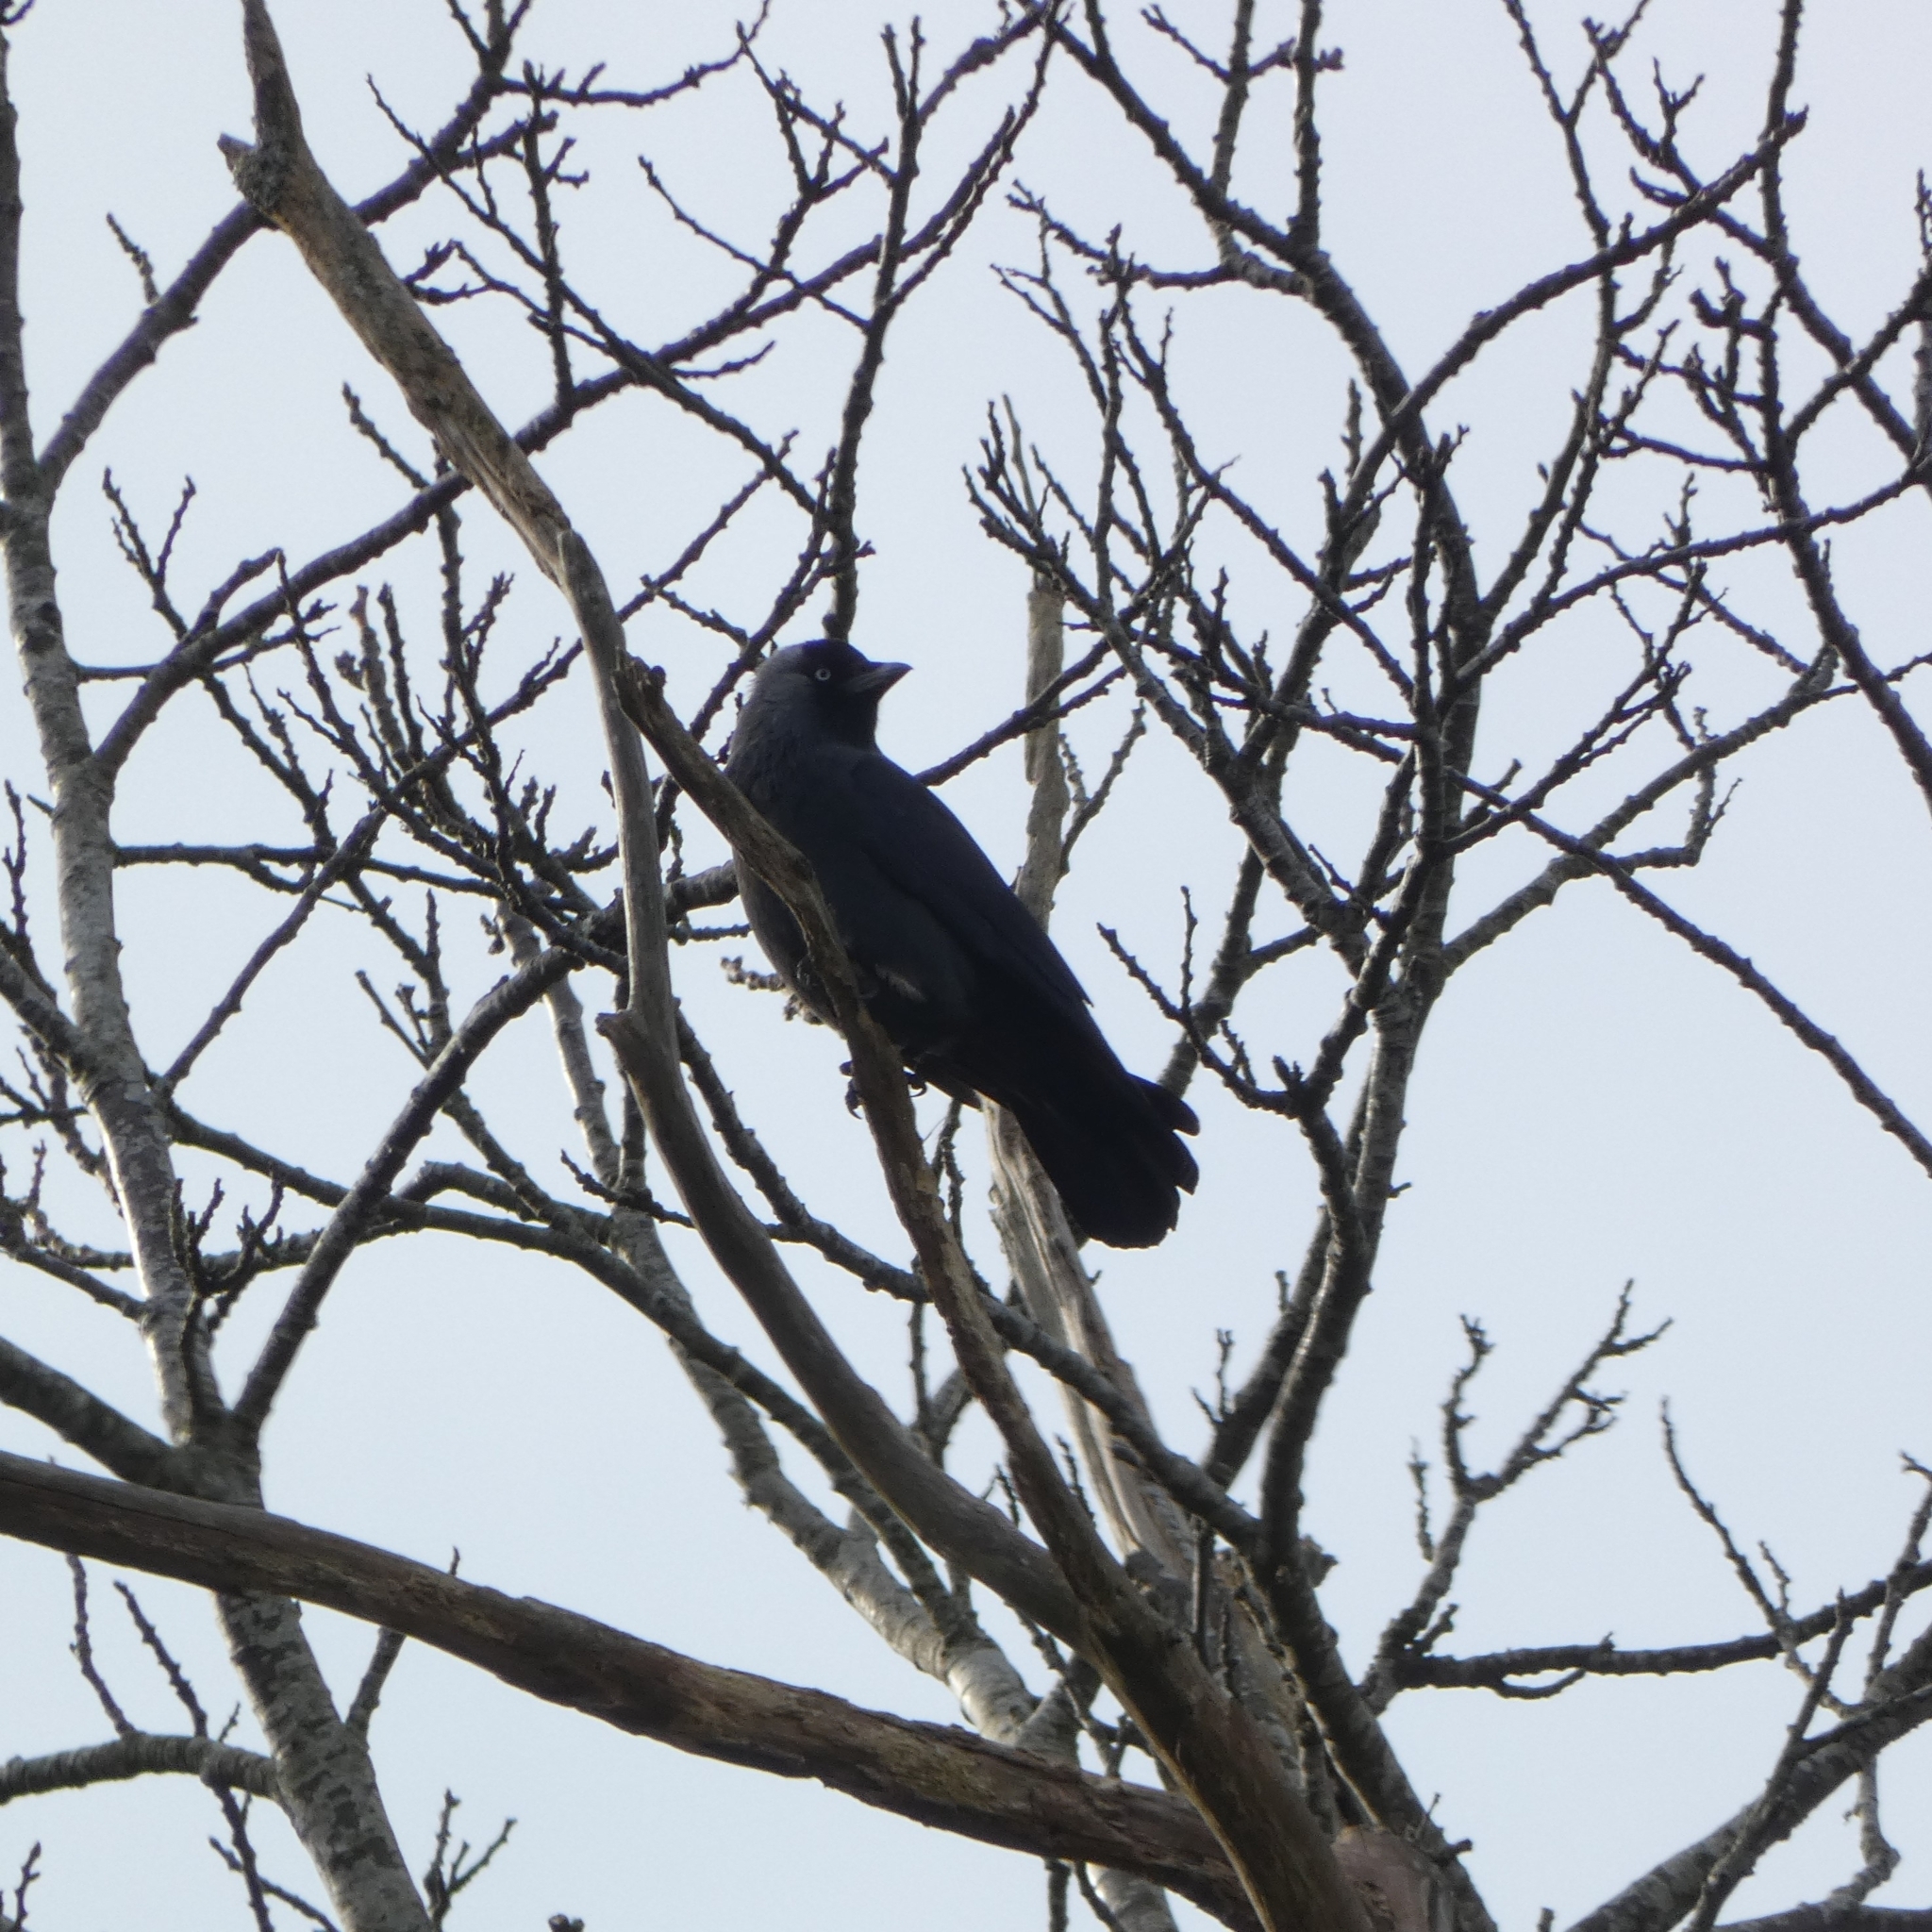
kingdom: Animalia
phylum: Chordata
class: Aves
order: Passeriformes
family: Corvidae
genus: Coloeus
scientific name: Coloeus monedula
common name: Western jackdaw
